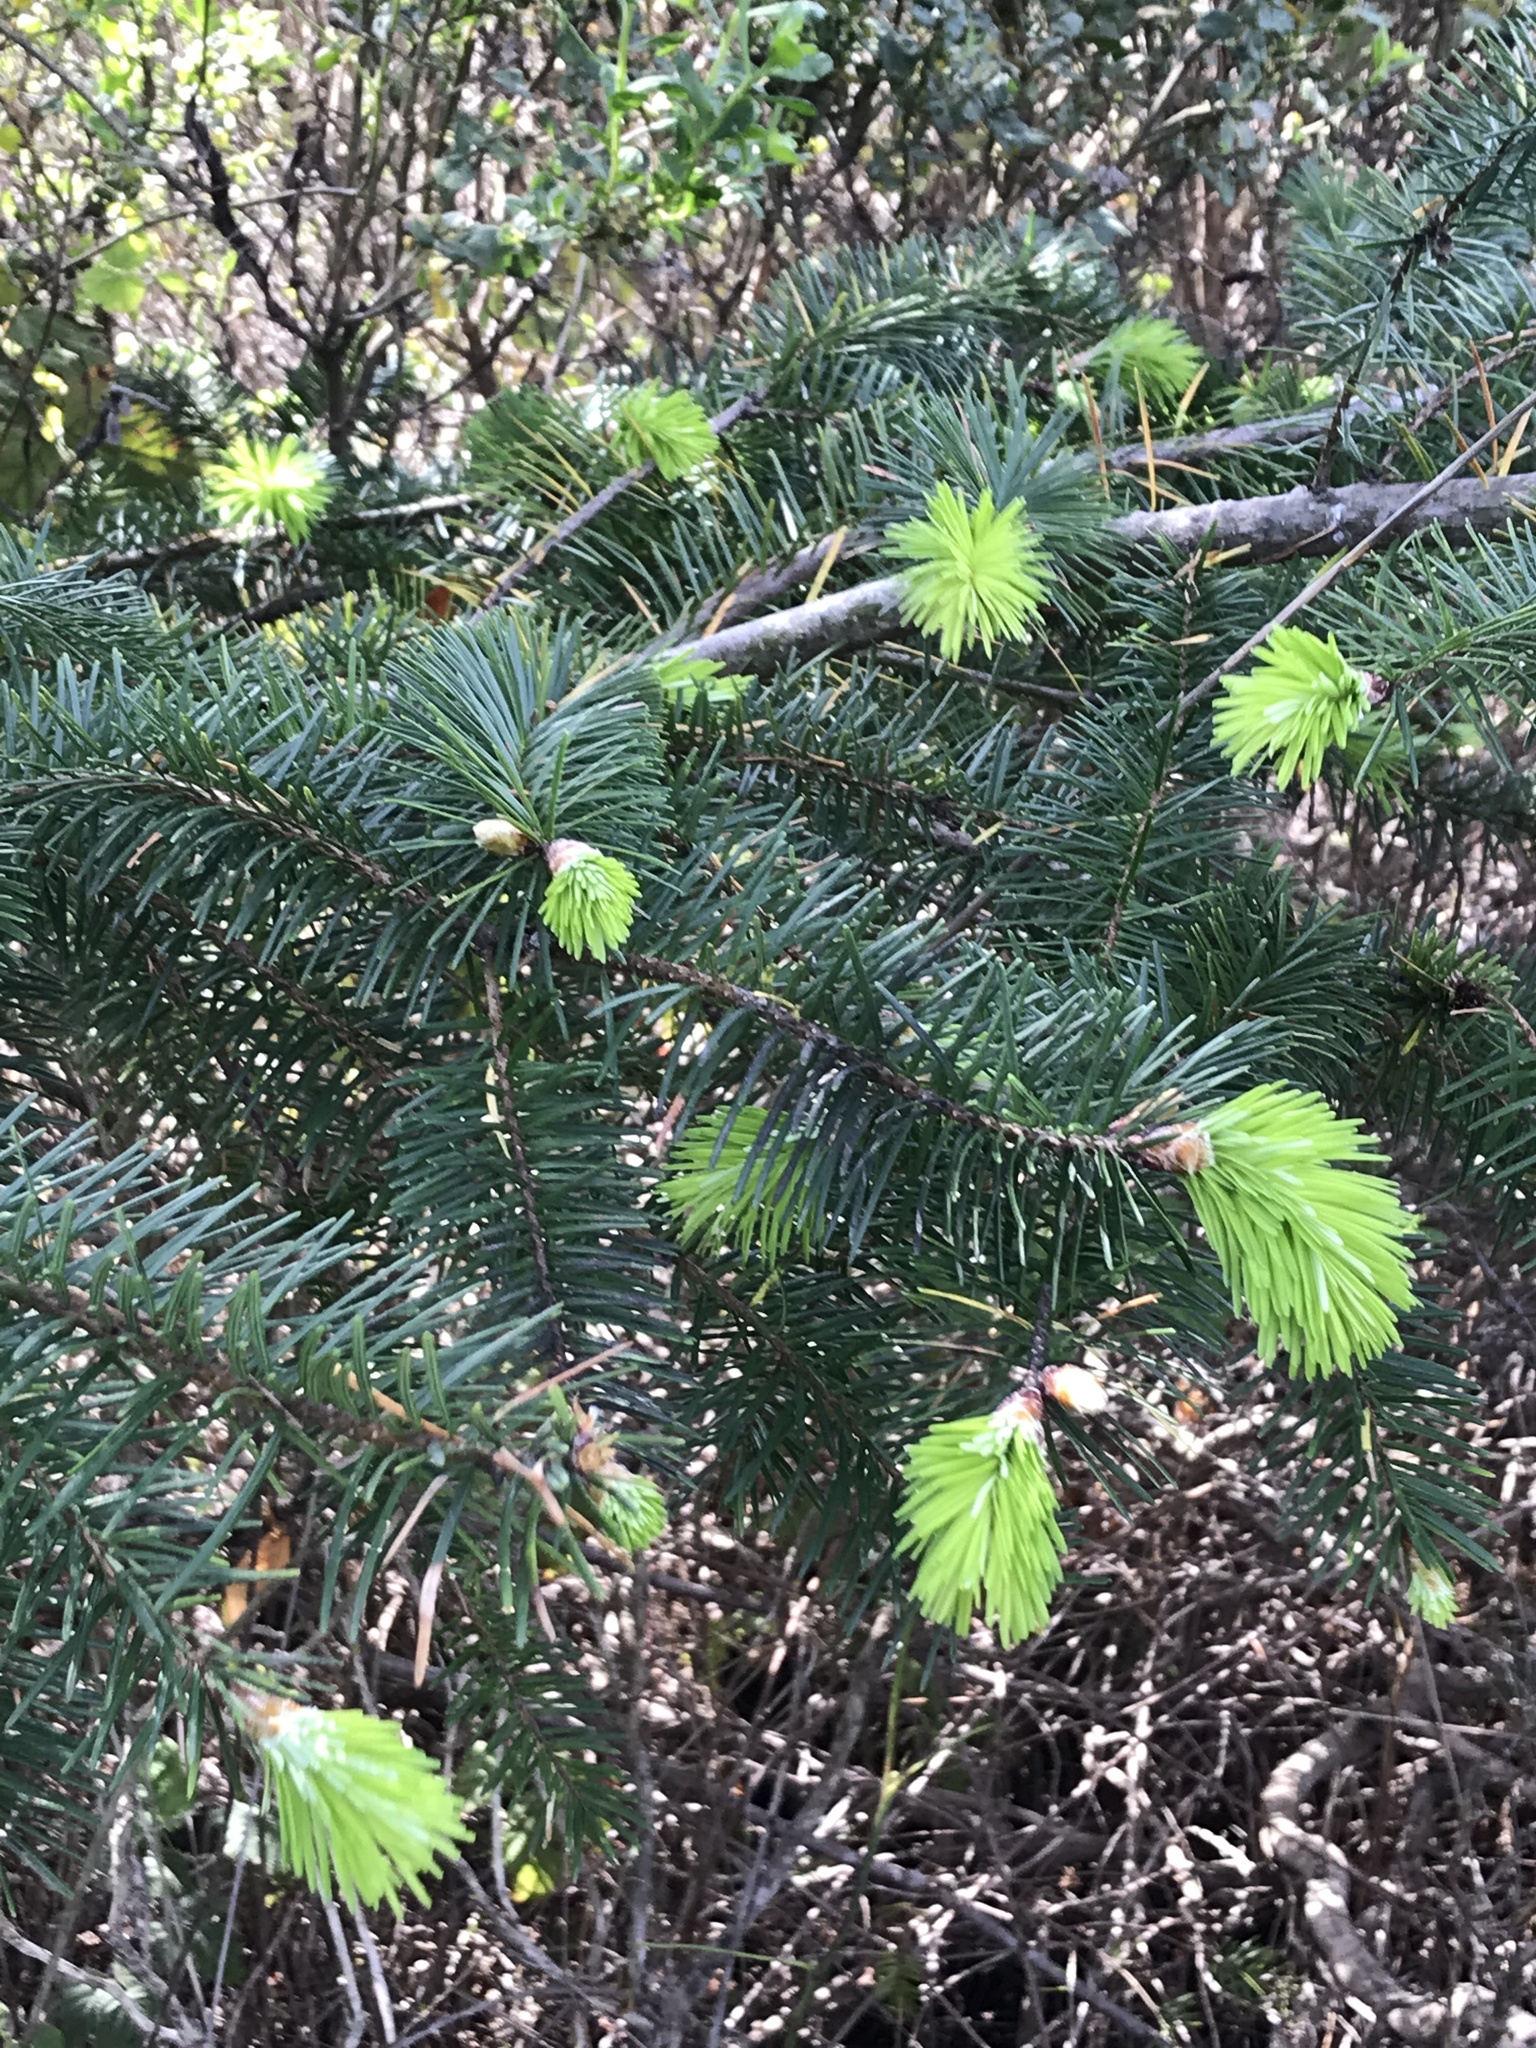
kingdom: Plantae
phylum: Tracheophyta
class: Pinopsida
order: Pinales
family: Pinaceae
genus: Pseudotsuga
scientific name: Pseudotsuga menziesii
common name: Douglas fir
